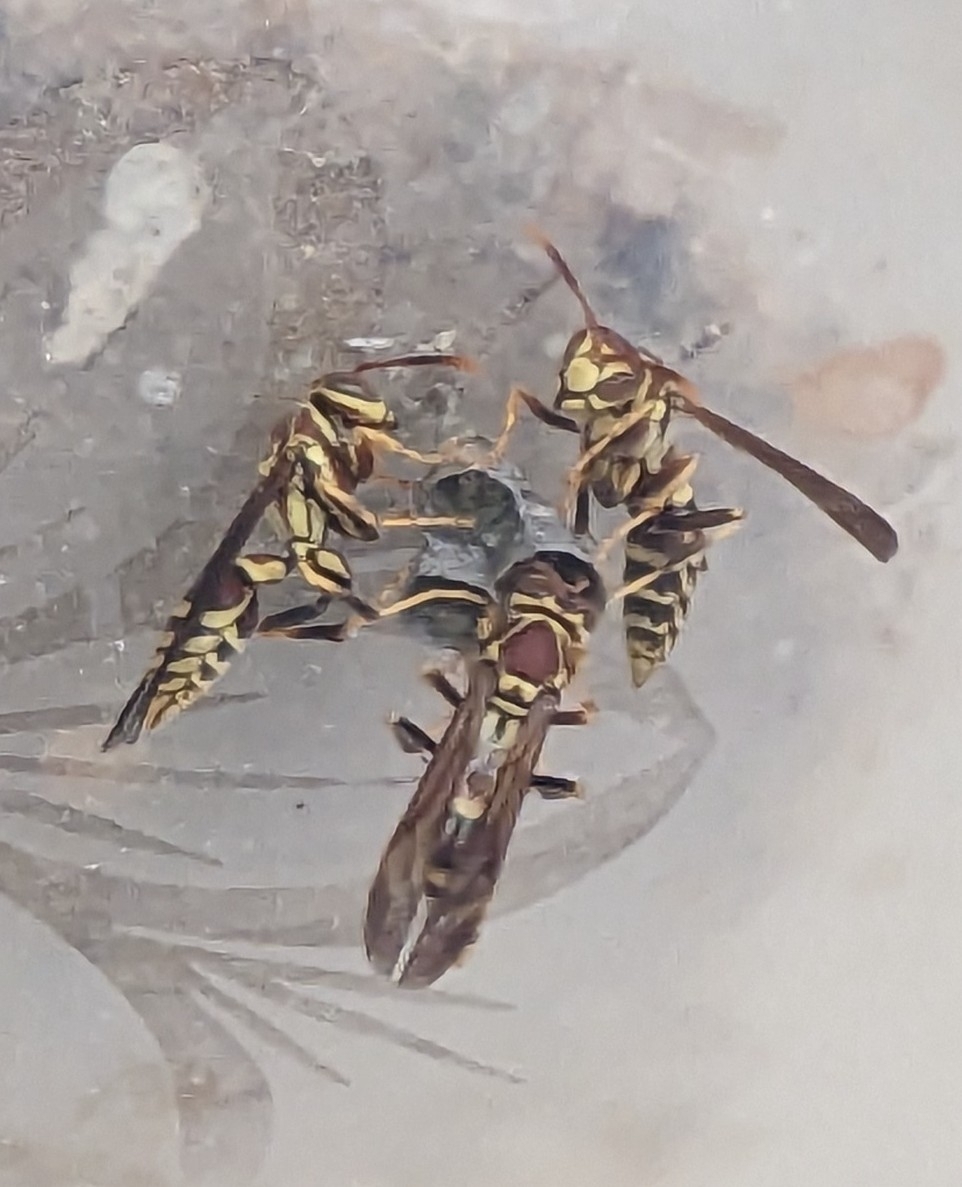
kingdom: Animalia
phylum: Arthropoda
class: Insecta
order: Hymenoptera
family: Eumenidae
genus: Polistes
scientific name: Polistes exclamans
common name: Paper wasp
